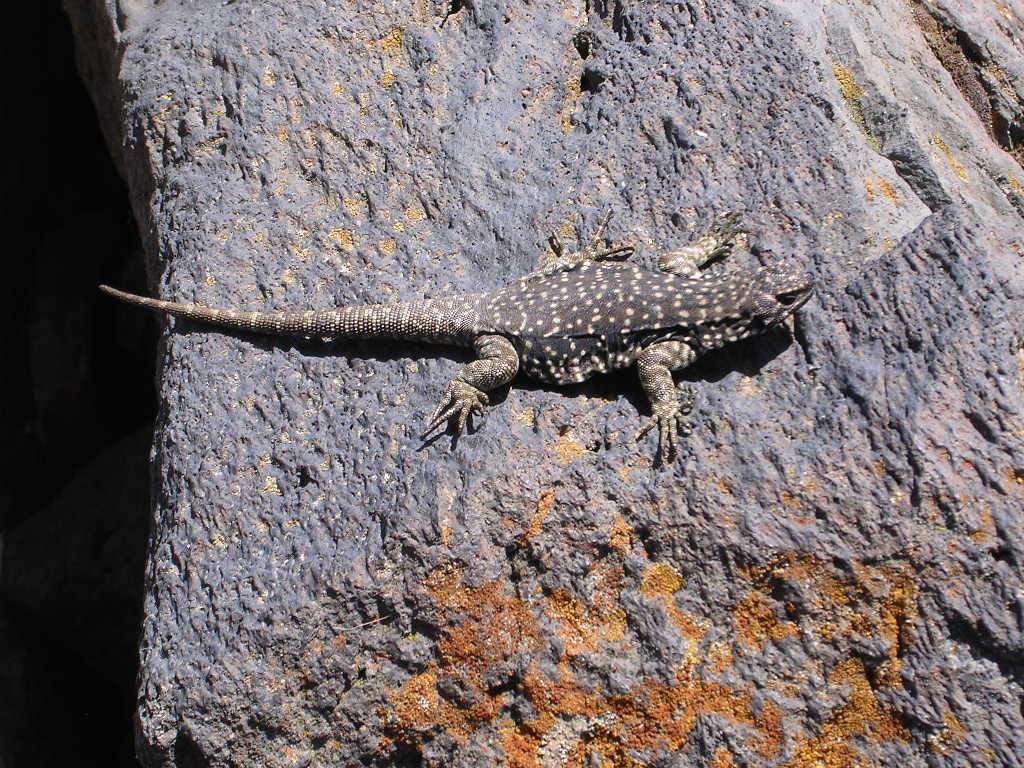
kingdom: Animalia
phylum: Chordata
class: Squamata
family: Liolaemidae
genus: Phymaturus
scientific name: Phymaturus zapalensis
